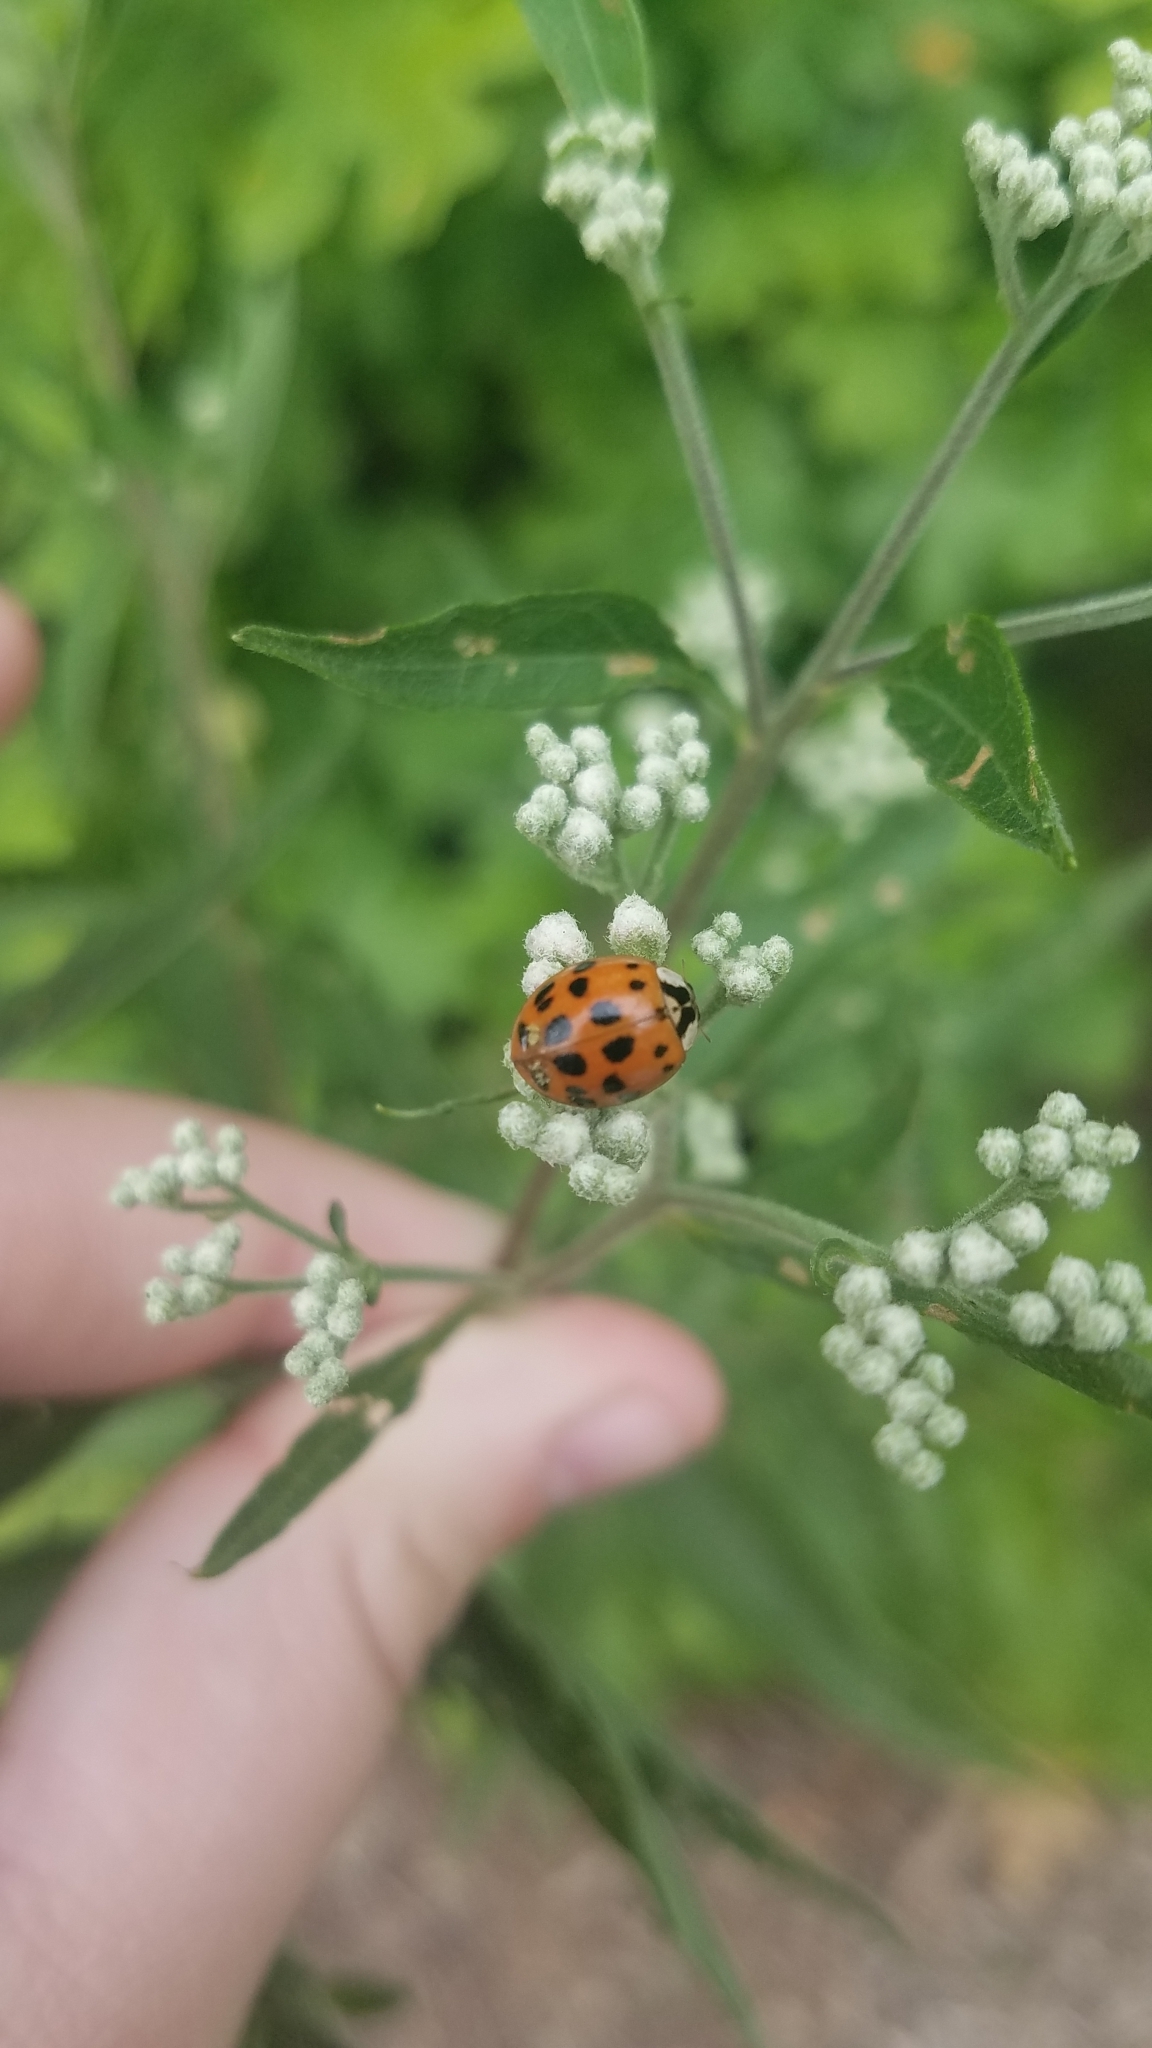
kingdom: Animalia
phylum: Arthropoda
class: Insecta
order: Coleoptera
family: Coccinellidae
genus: Harmonia
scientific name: Harmonia axyridis
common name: Harlequin ladybird
